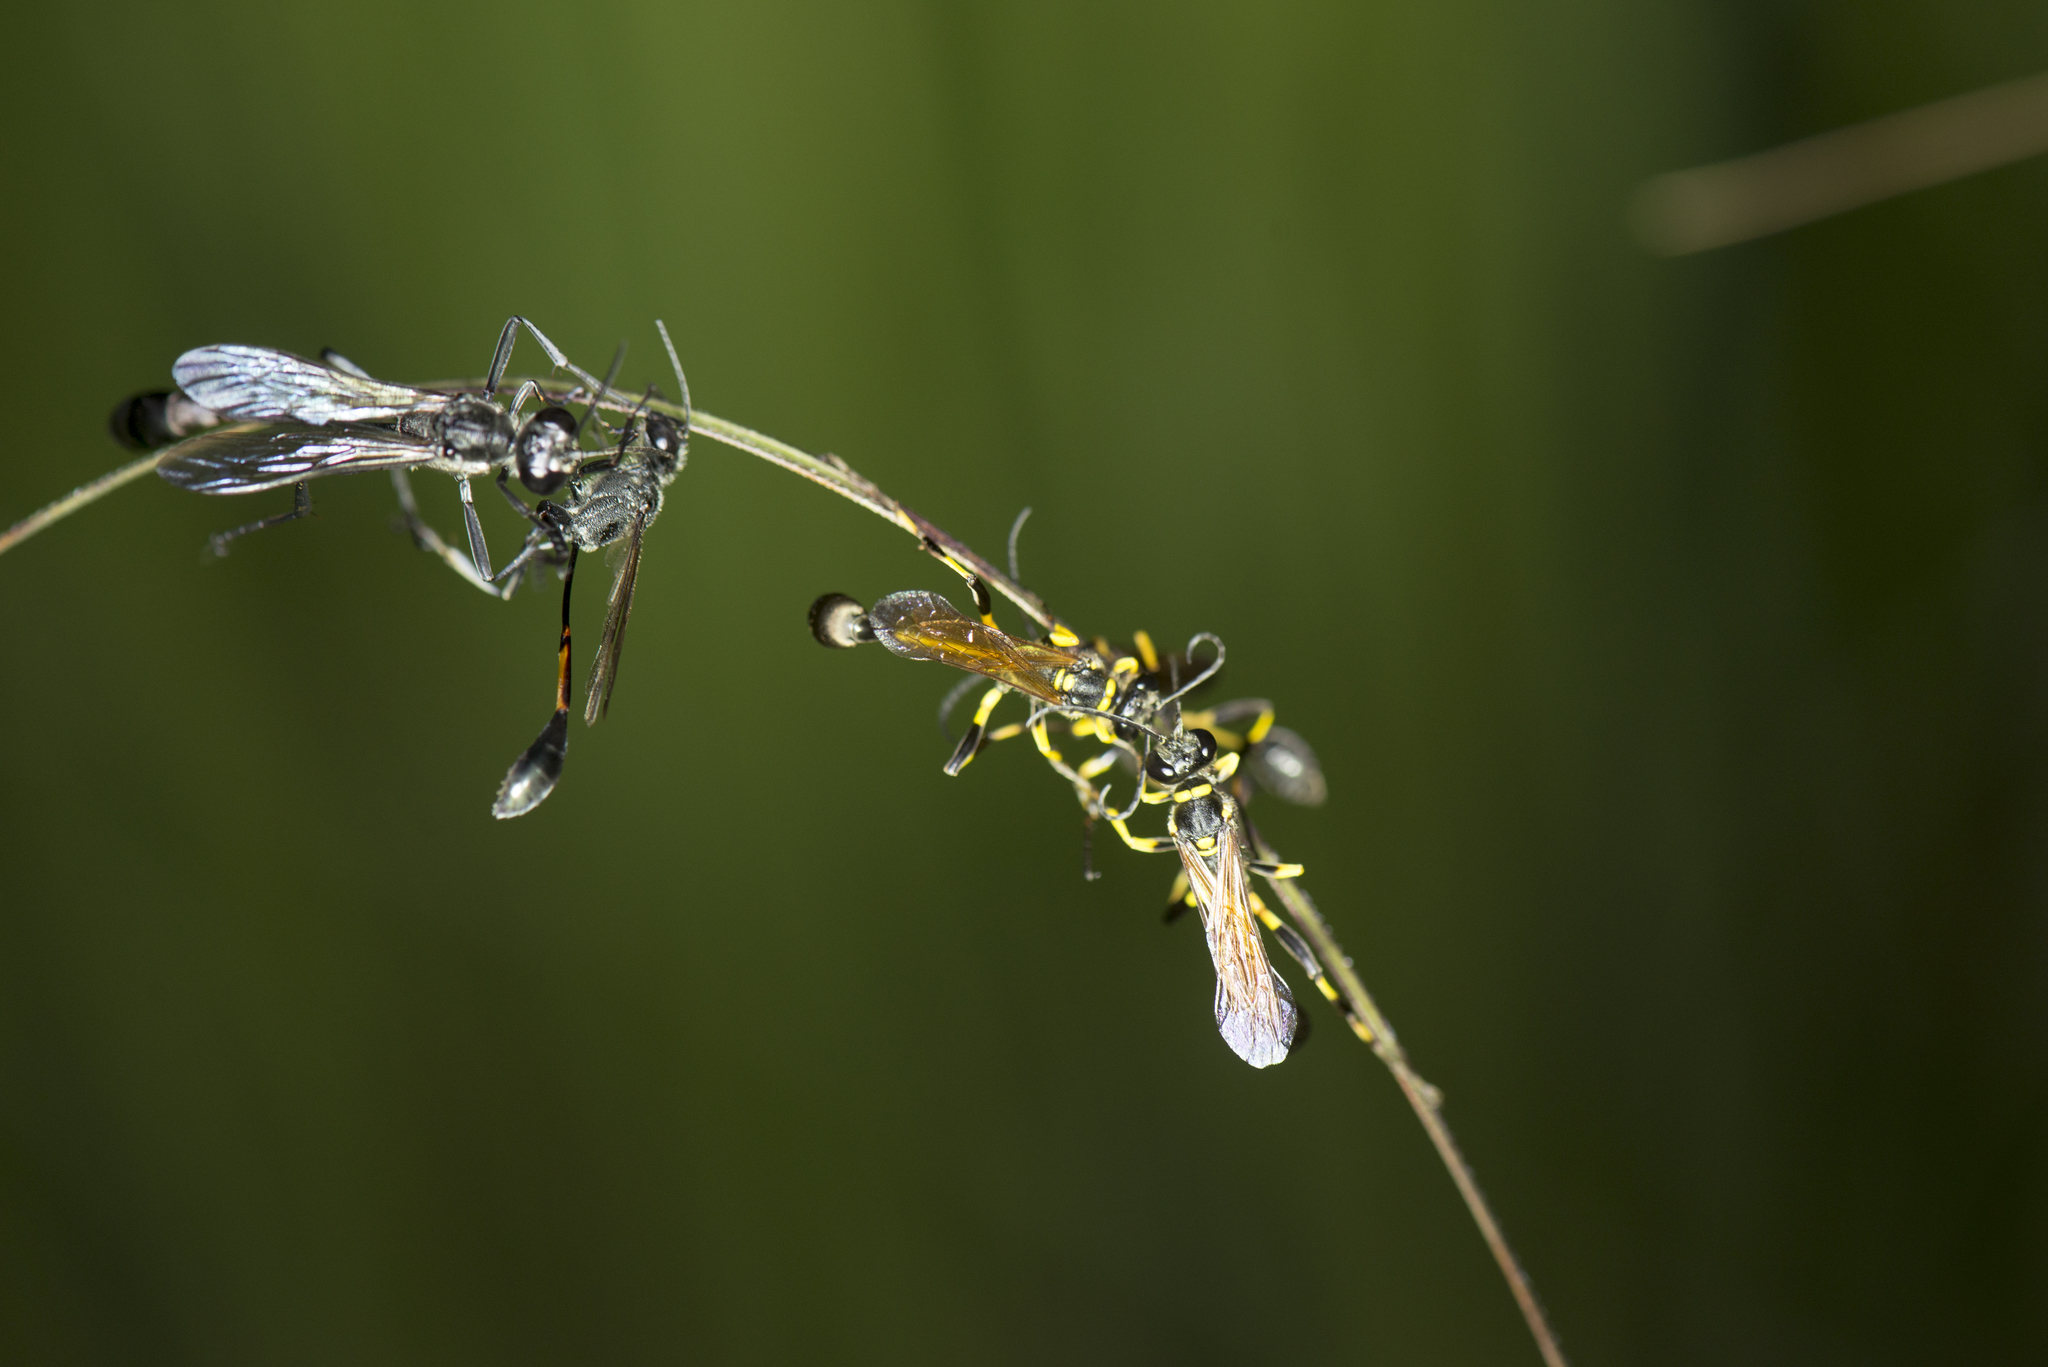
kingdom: Animalia
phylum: Arthropoda
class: Insecta
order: Hymenoptera
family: Sphecidae
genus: Sceliphron
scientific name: Sceliphron madraspatanum
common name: Mud dauber
